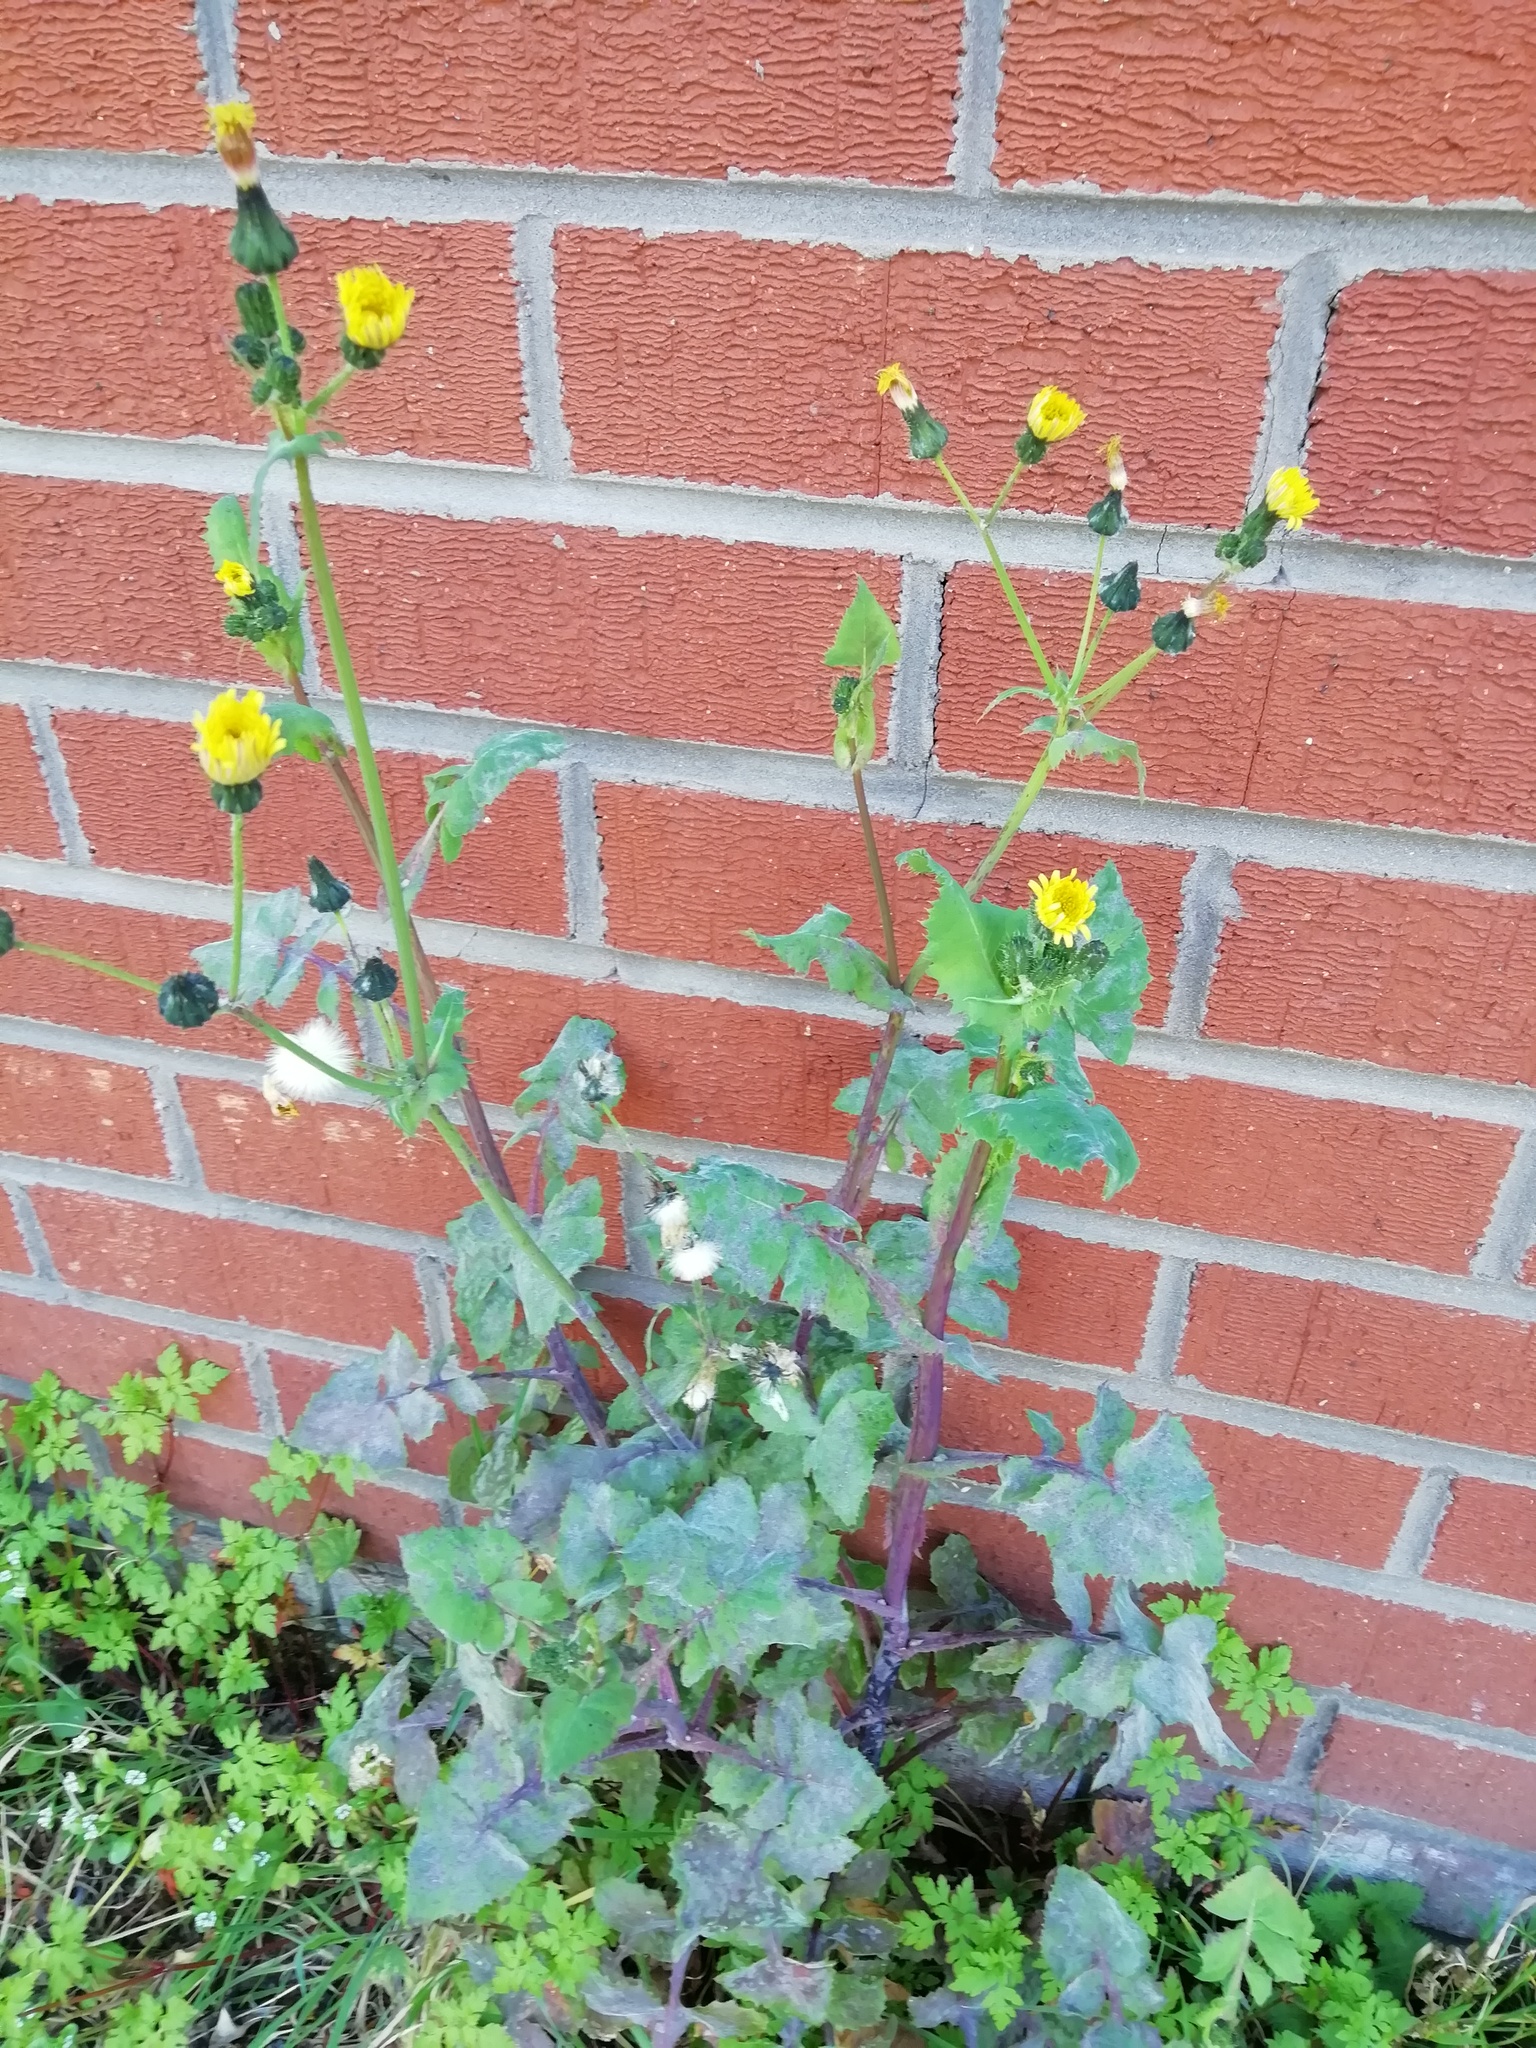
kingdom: Plantae
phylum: Tracheophyta
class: Magnoliopsida
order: Asterales
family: Asteraceae
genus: Sonchus
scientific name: Sonchus oleraceus
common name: Common sowthistle
